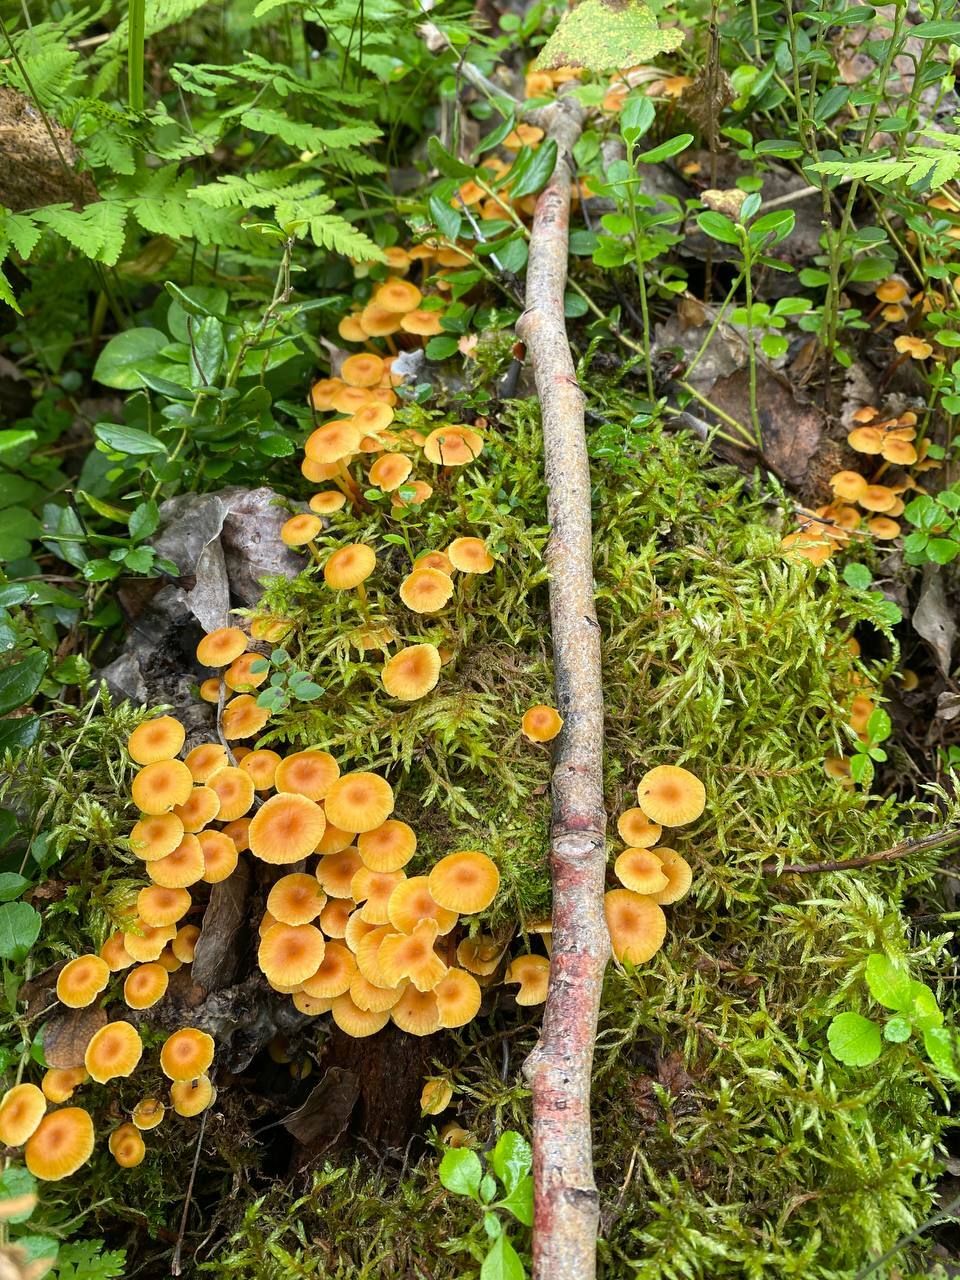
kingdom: Fungi
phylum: Basidiomycota
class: Agaricomycetes
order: Agaricales
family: Mycenaceae
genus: Xeromphalina
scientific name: Xeromphalina campanella
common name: Pinewood gingertail
